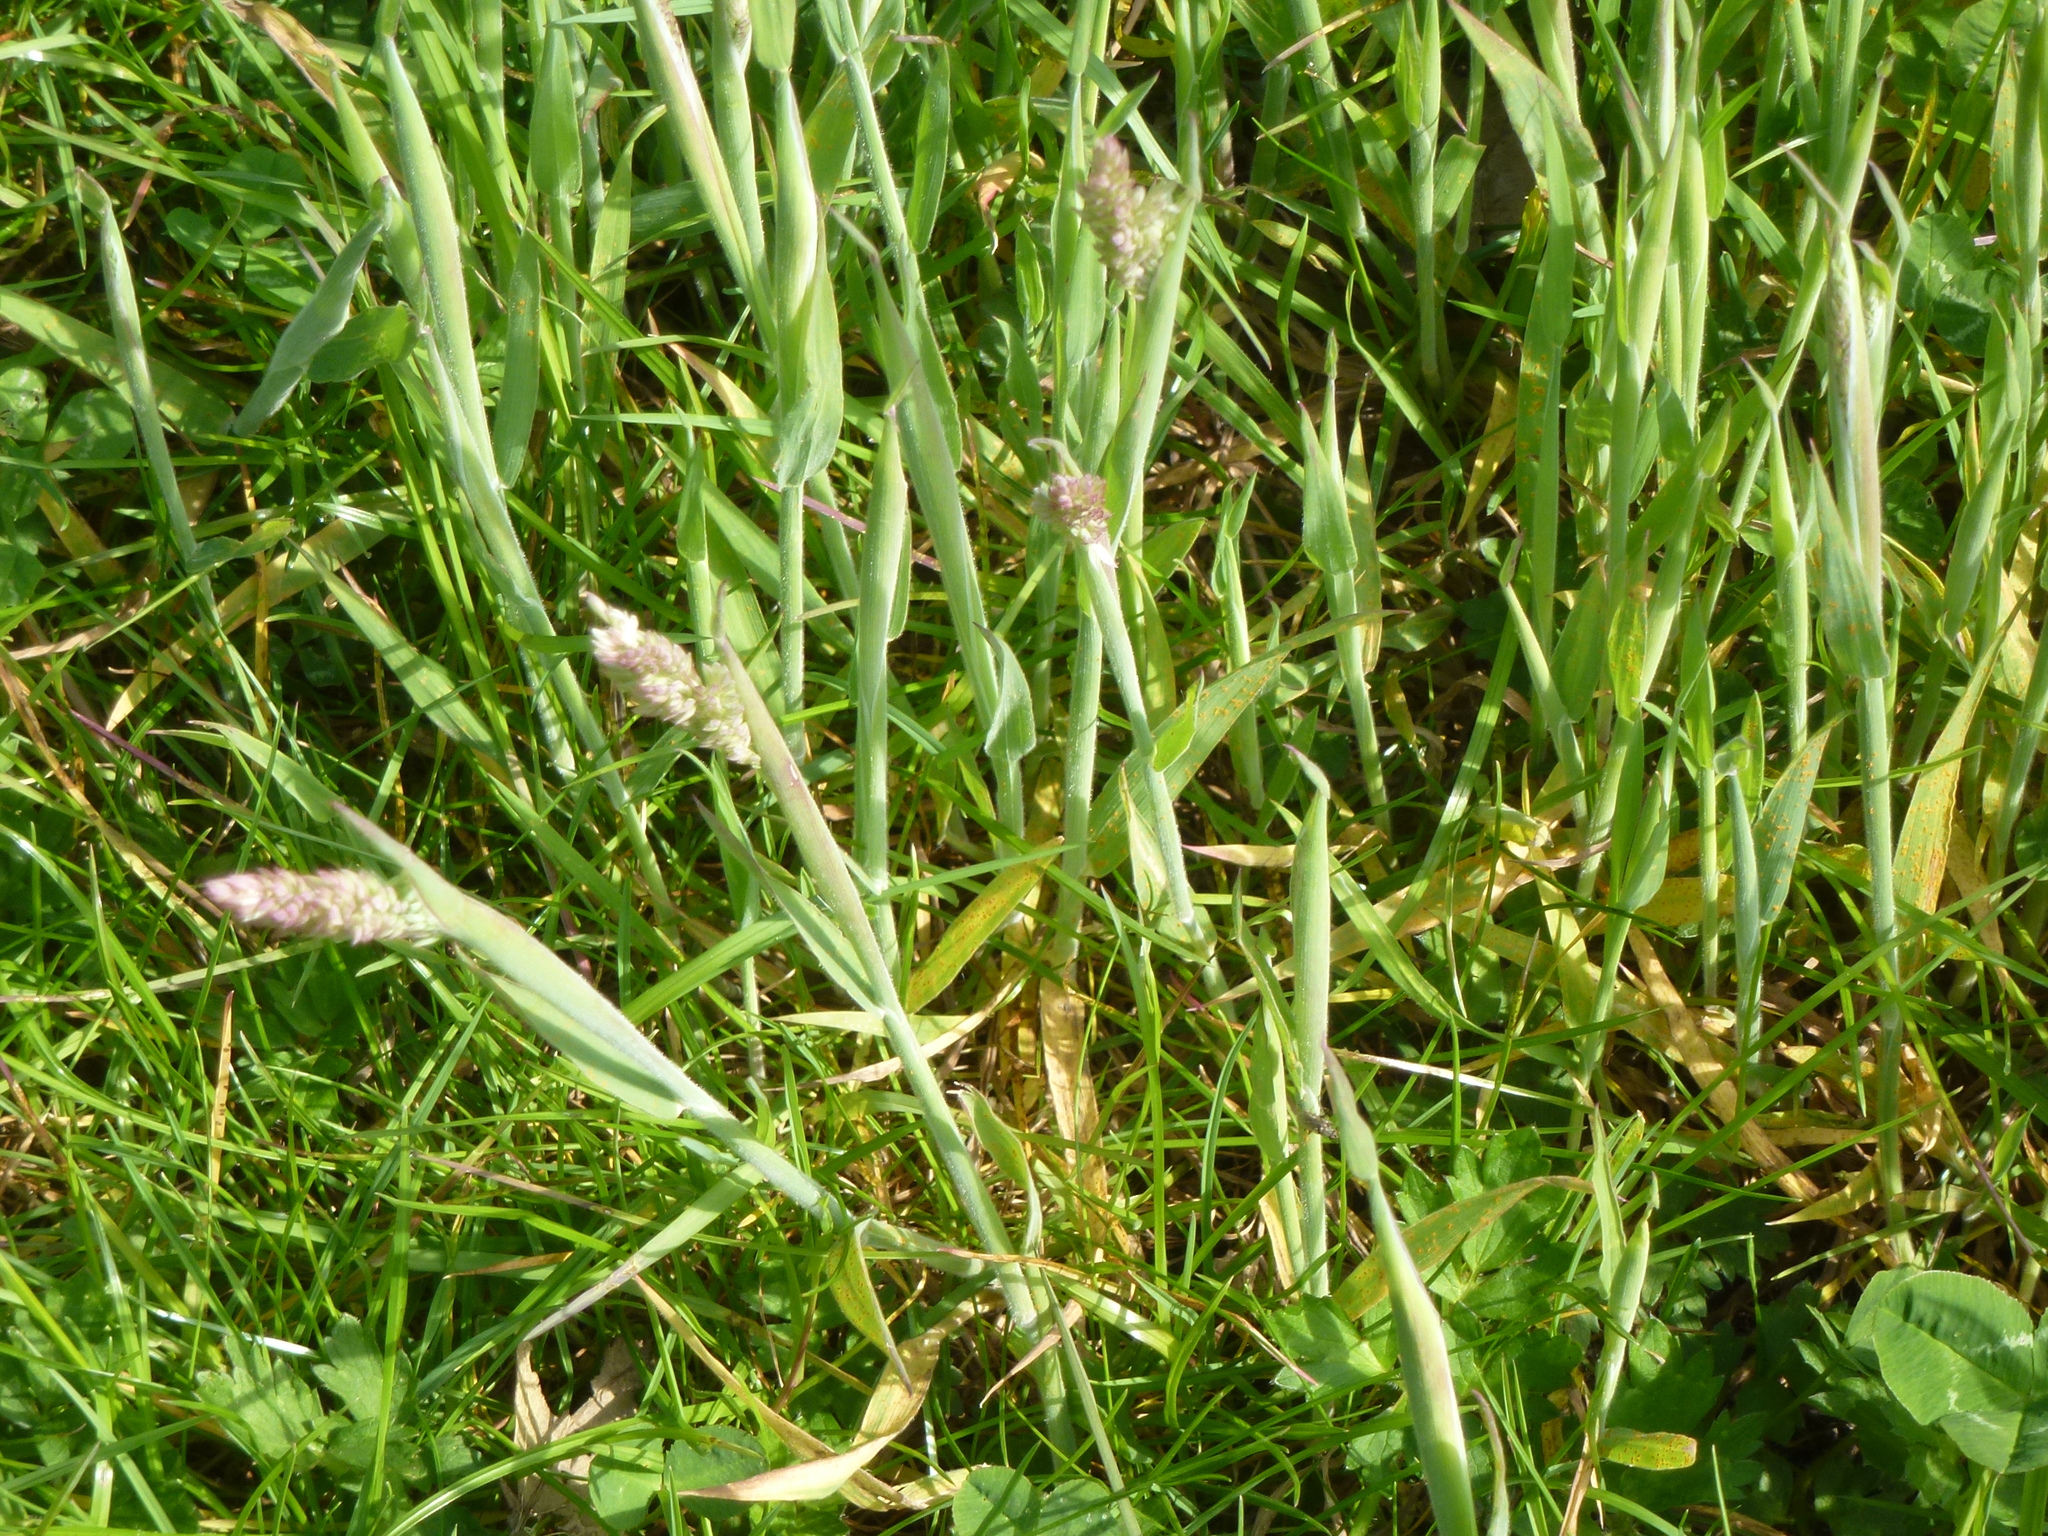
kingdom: Plantae
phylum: Tracheophyta
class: Liliopsida
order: Poales
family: Poaceae
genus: Holcus
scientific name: Holcus lanatus
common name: Yorkshire-fog
